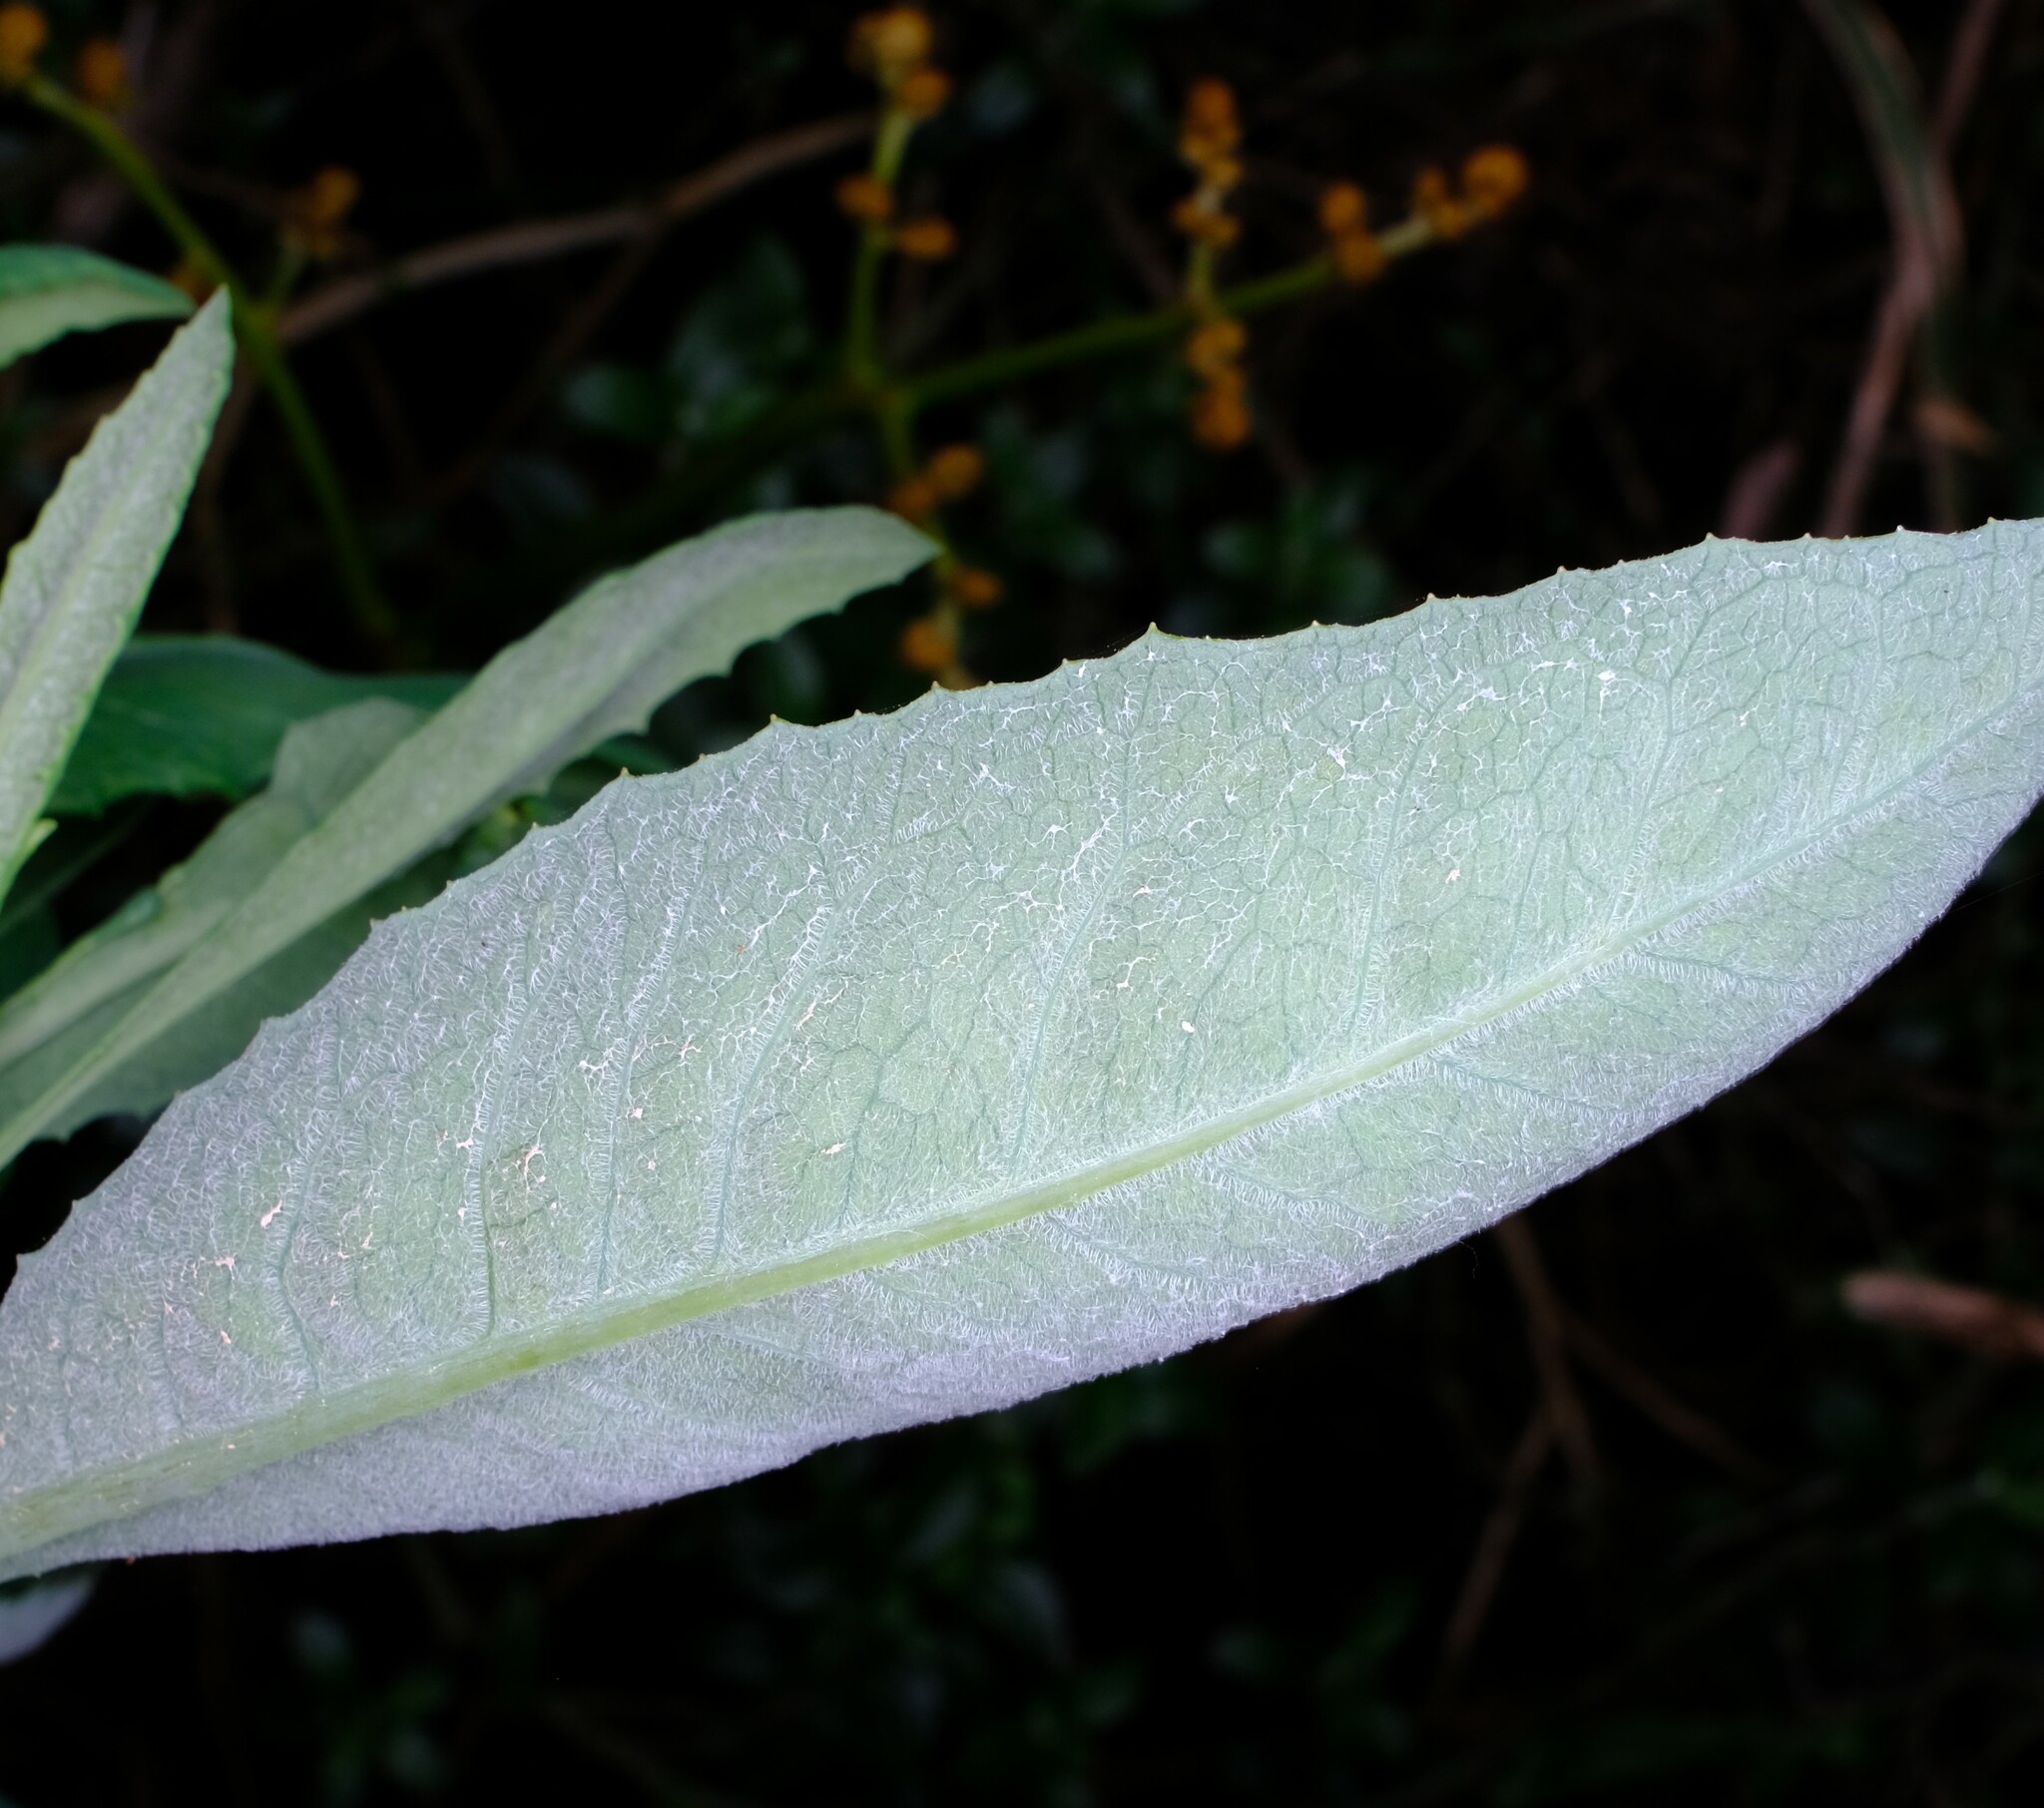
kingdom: Plantae
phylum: Tracheophyta
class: Magnoliopsida
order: Asterales
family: Asteraceae
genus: Senecio
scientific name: Senecio odoratus
